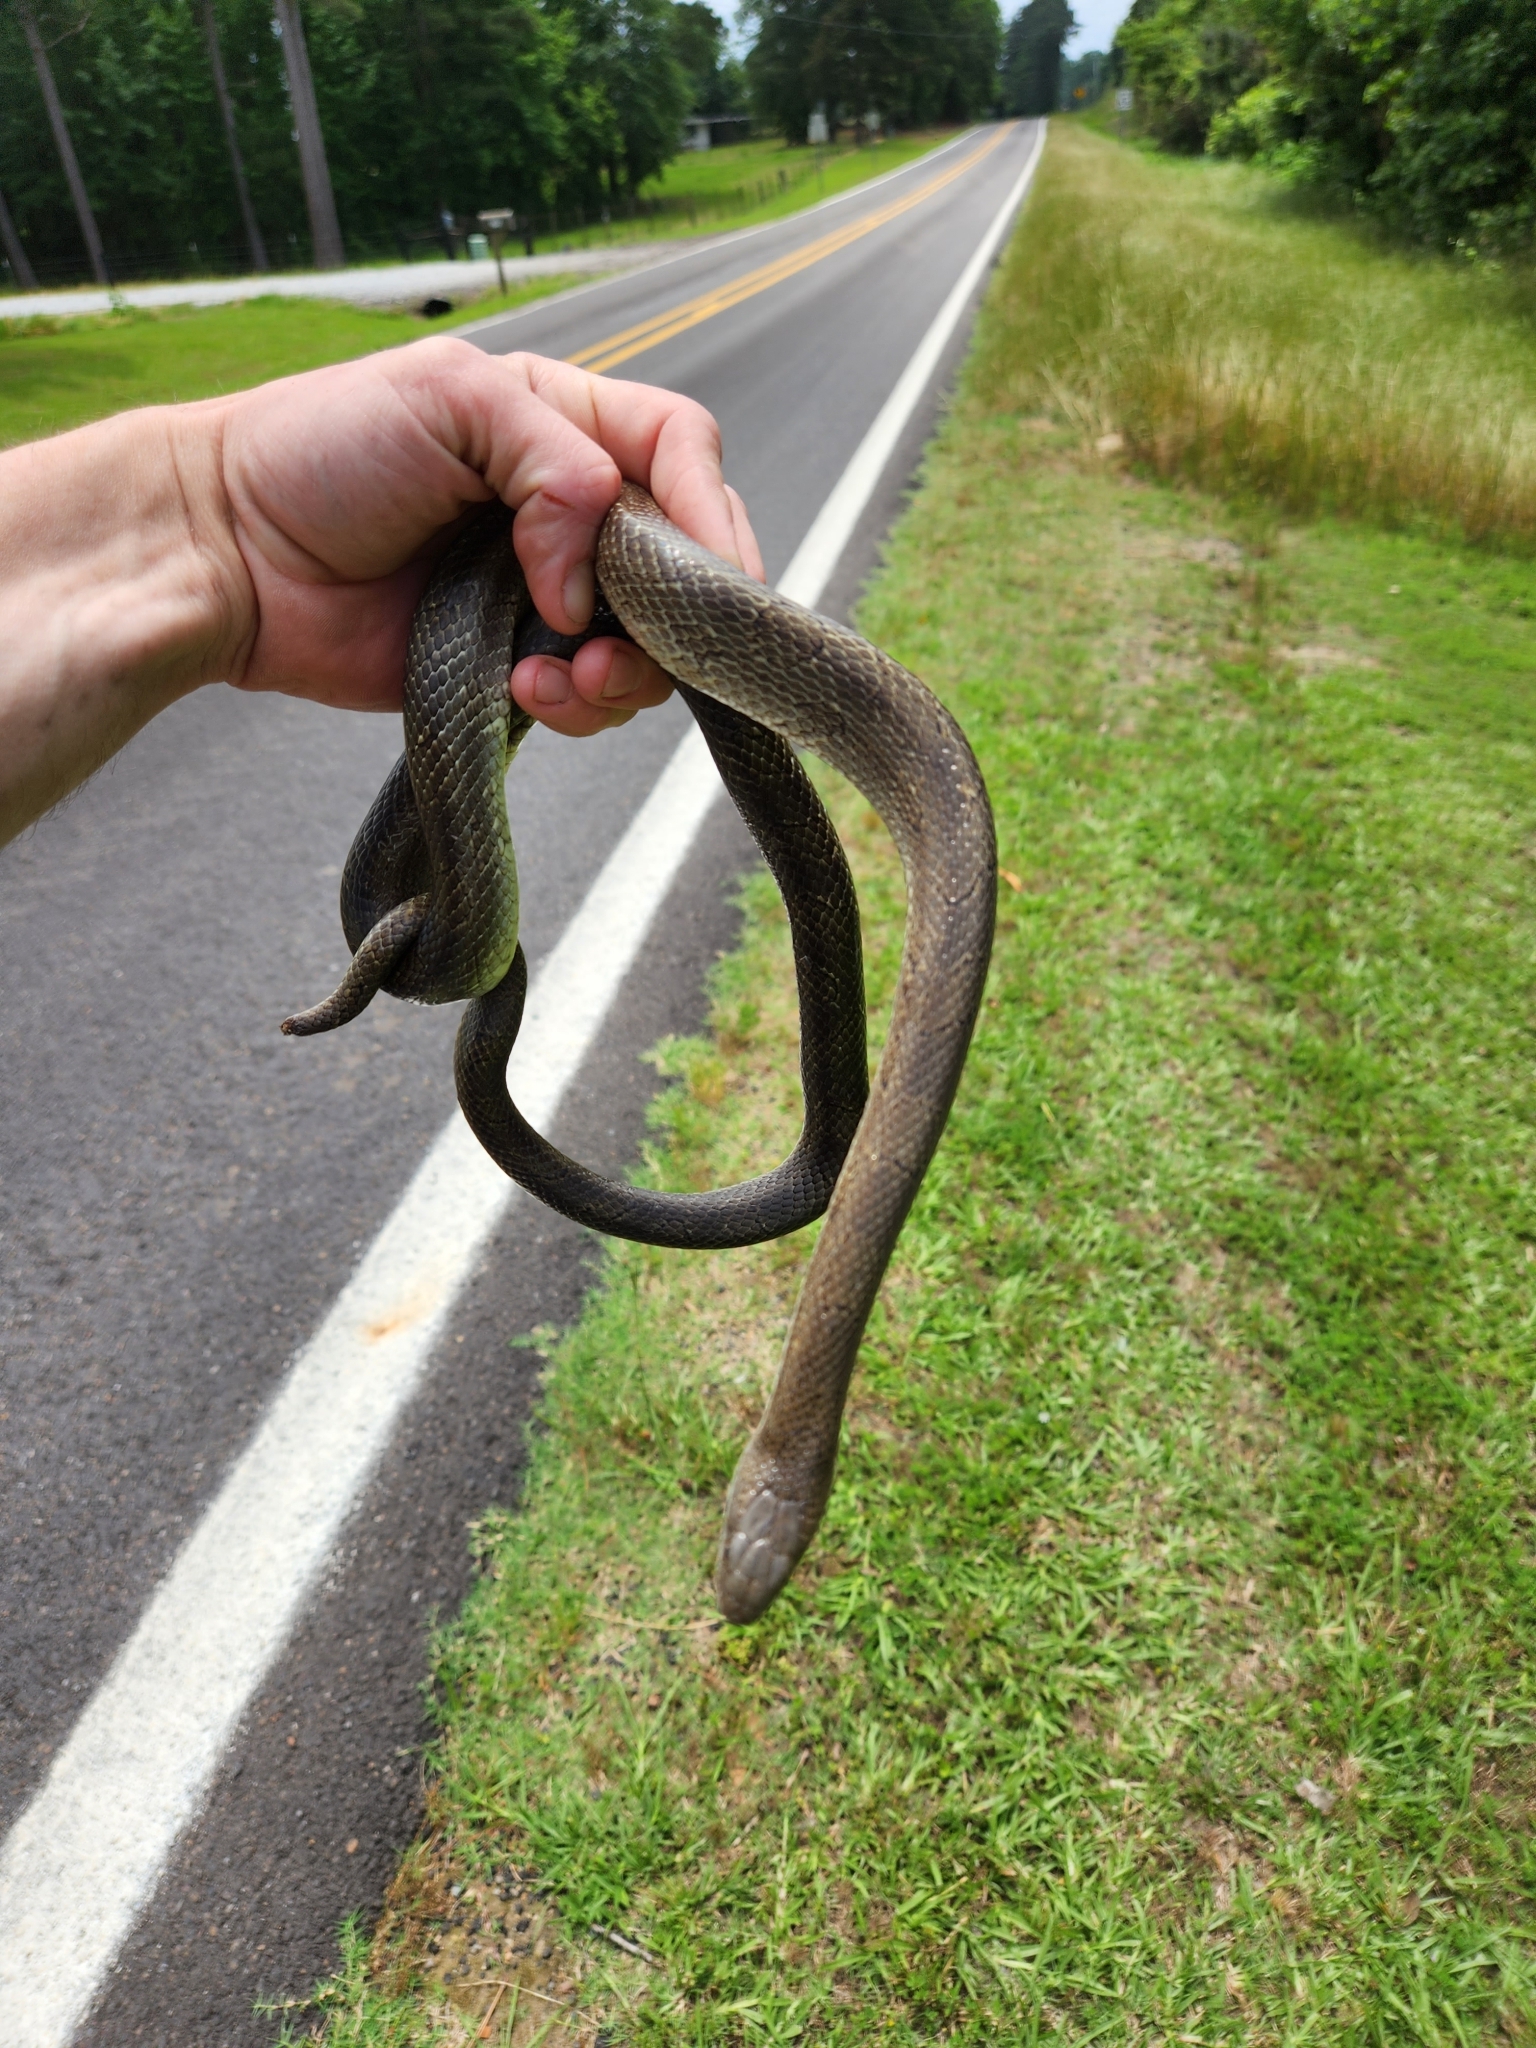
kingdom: Animalia
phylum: Chordata
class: Squamata
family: Colubridae
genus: Lampropeltis
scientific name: Lampropeltis calligaster
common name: Prairie kingsnake
